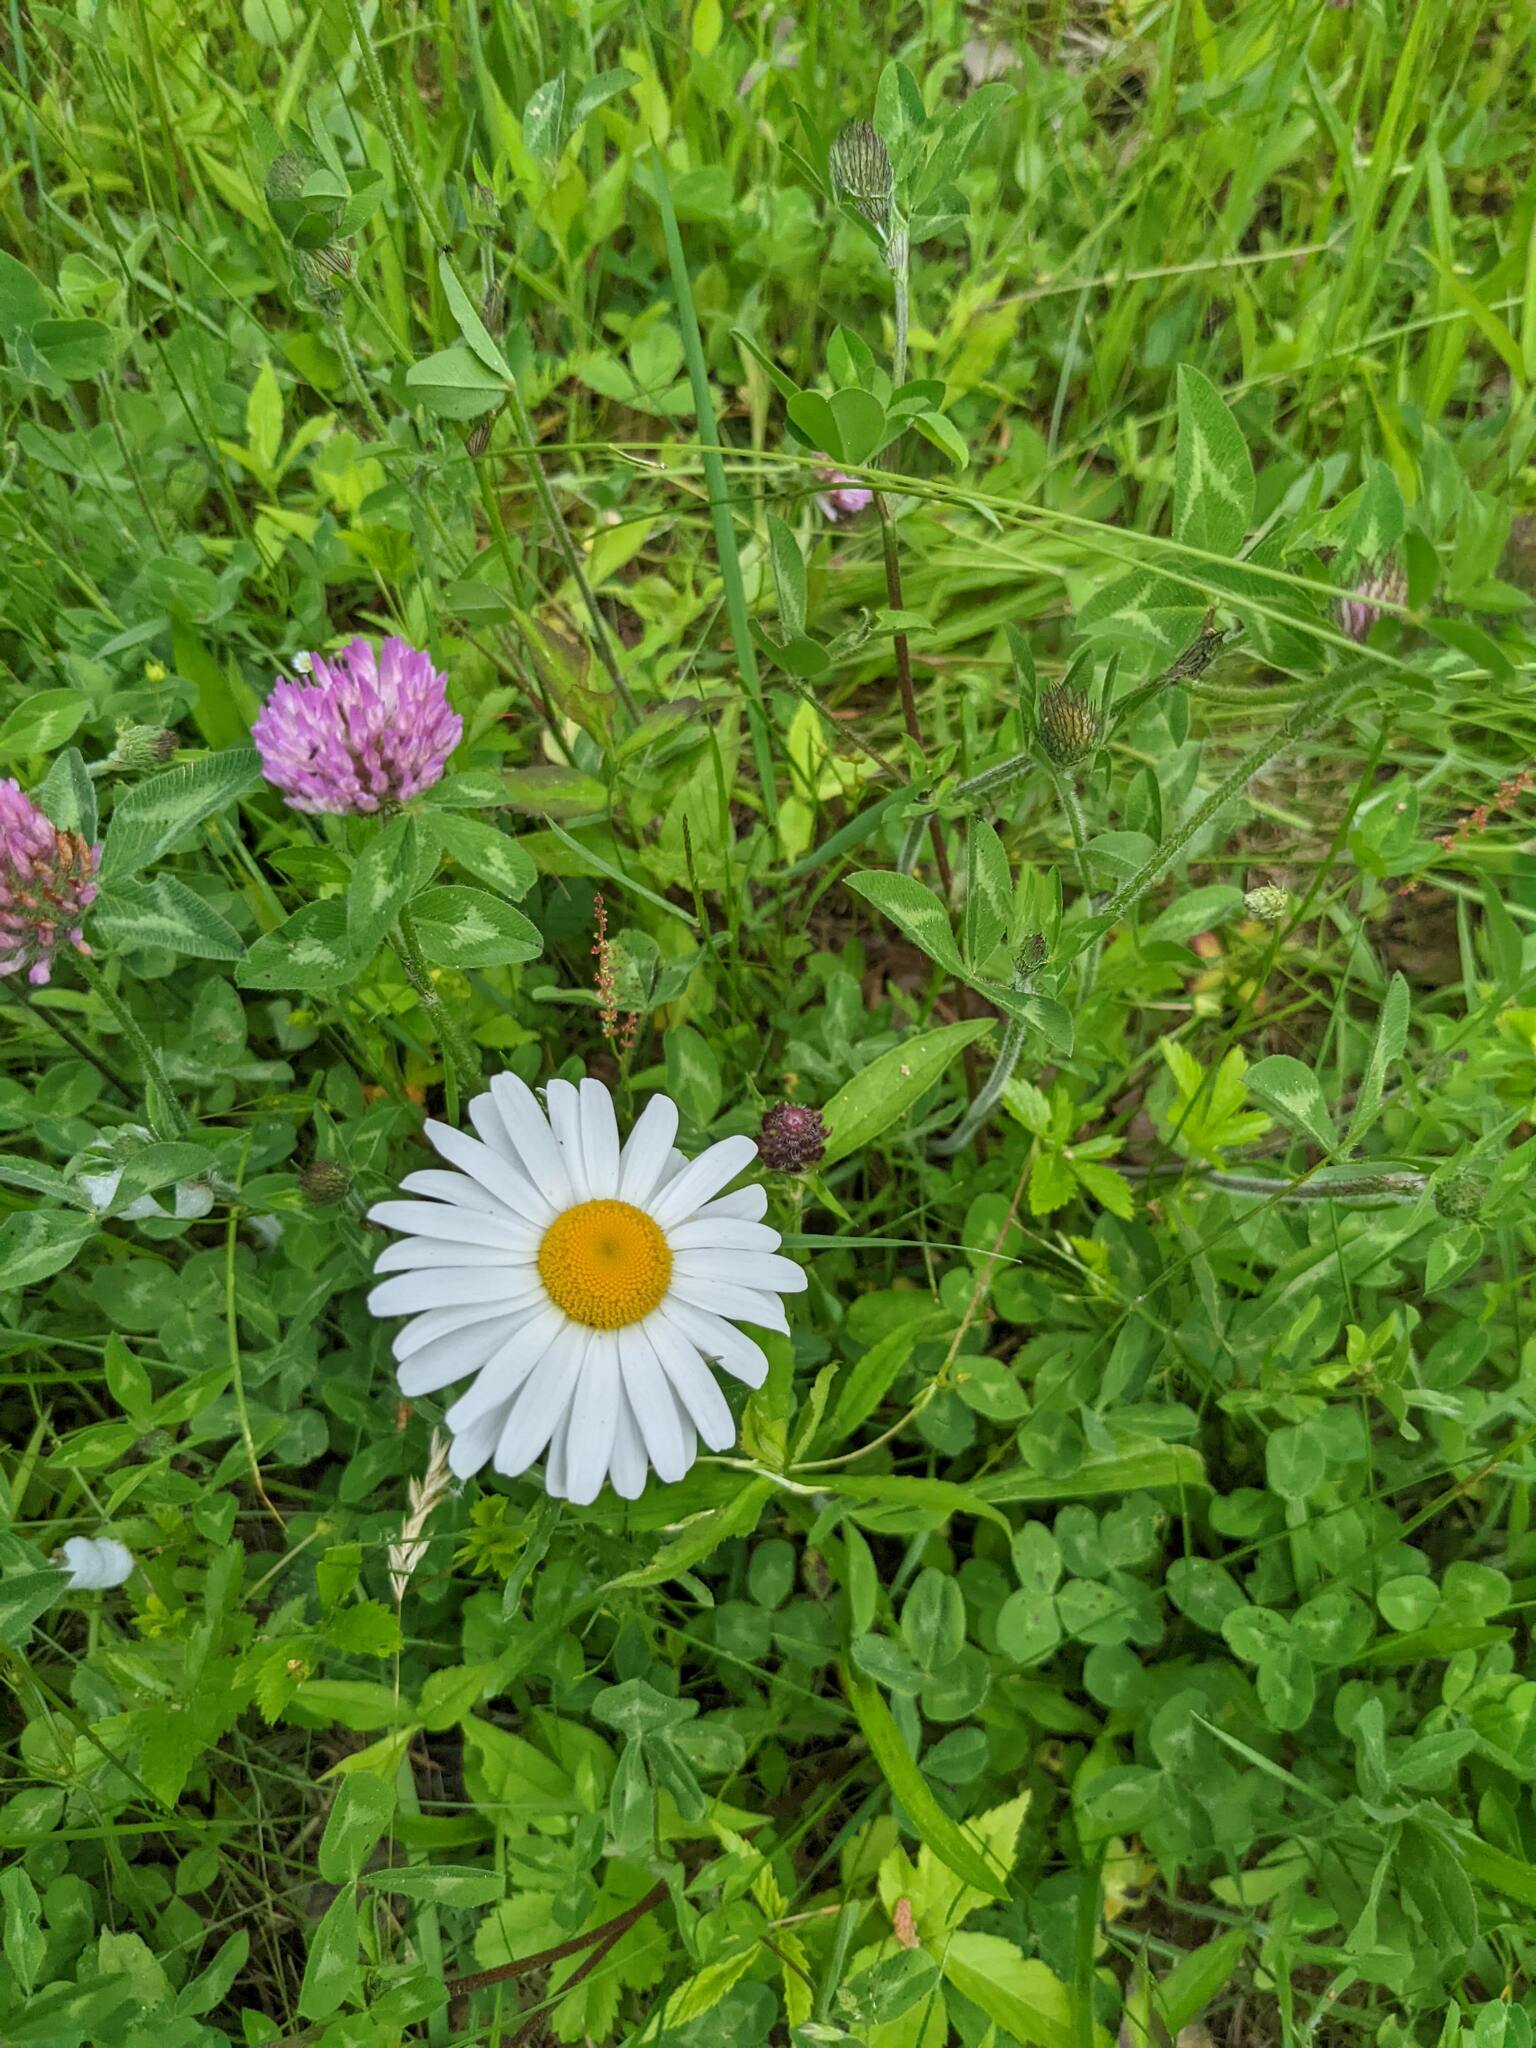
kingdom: Plantae
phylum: Tracheophyta
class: Magnoliopsida
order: Asterales
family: Asteraceae
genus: Leucanthemum
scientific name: Leucanthemum vulgare
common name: Oxeye daisy
